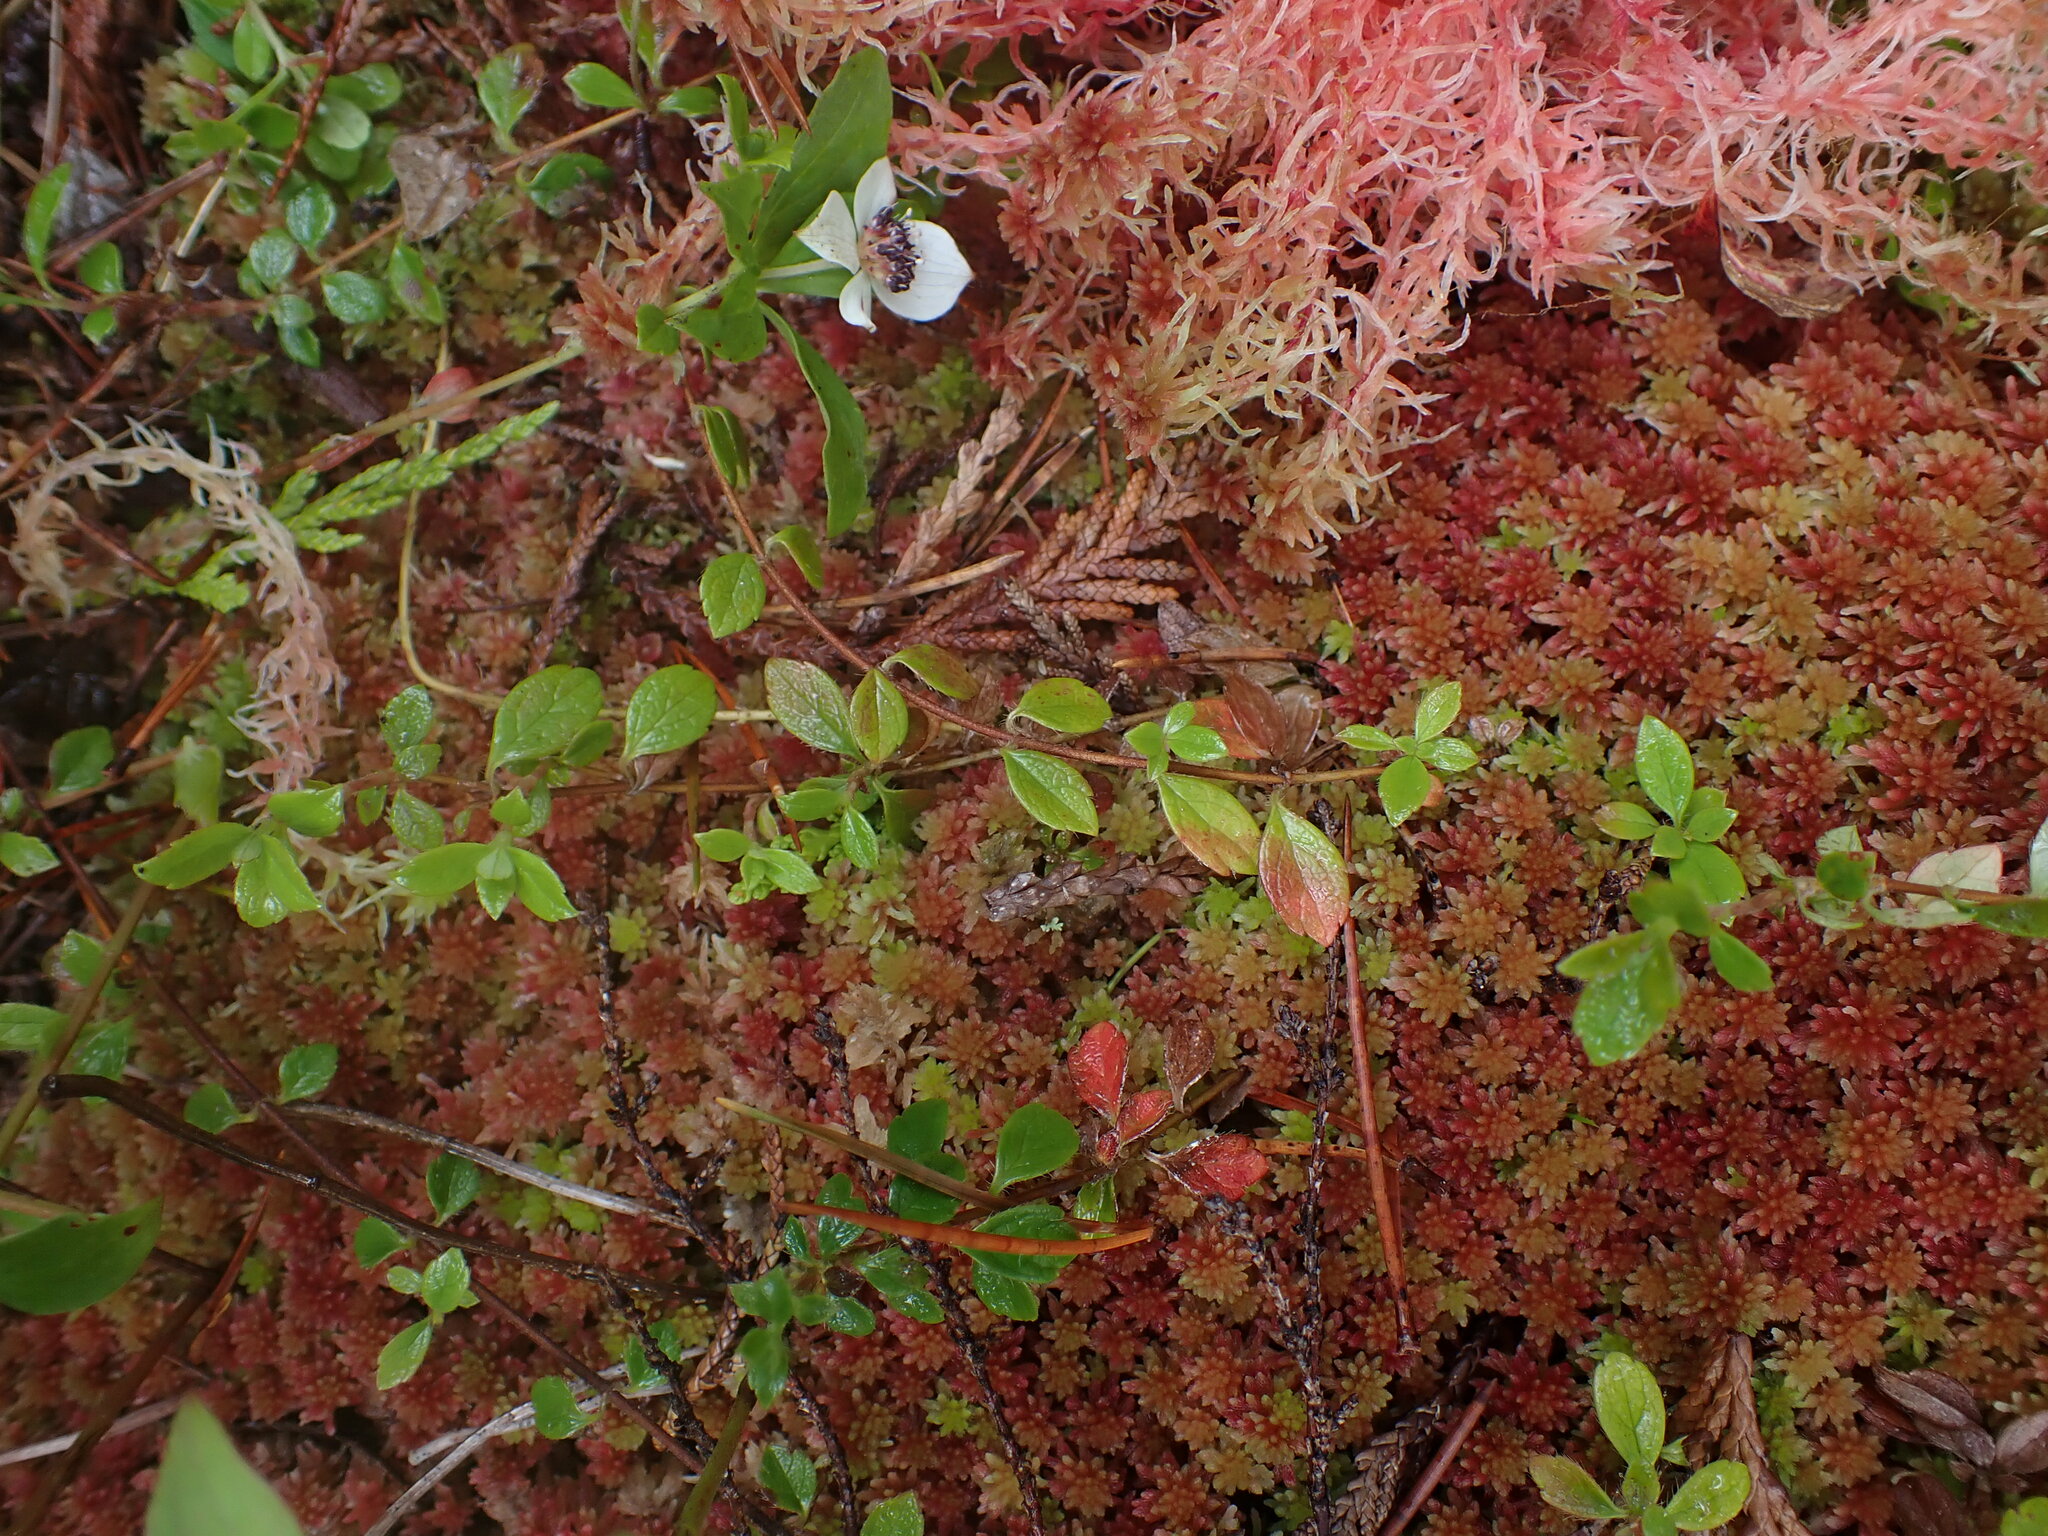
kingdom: Plantae
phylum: Tracheophyta
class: Magnoliopsida
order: Ericales
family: Ericaceae
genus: Vaccinium
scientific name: Vaccinium oxycoccos
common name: Cranberry
